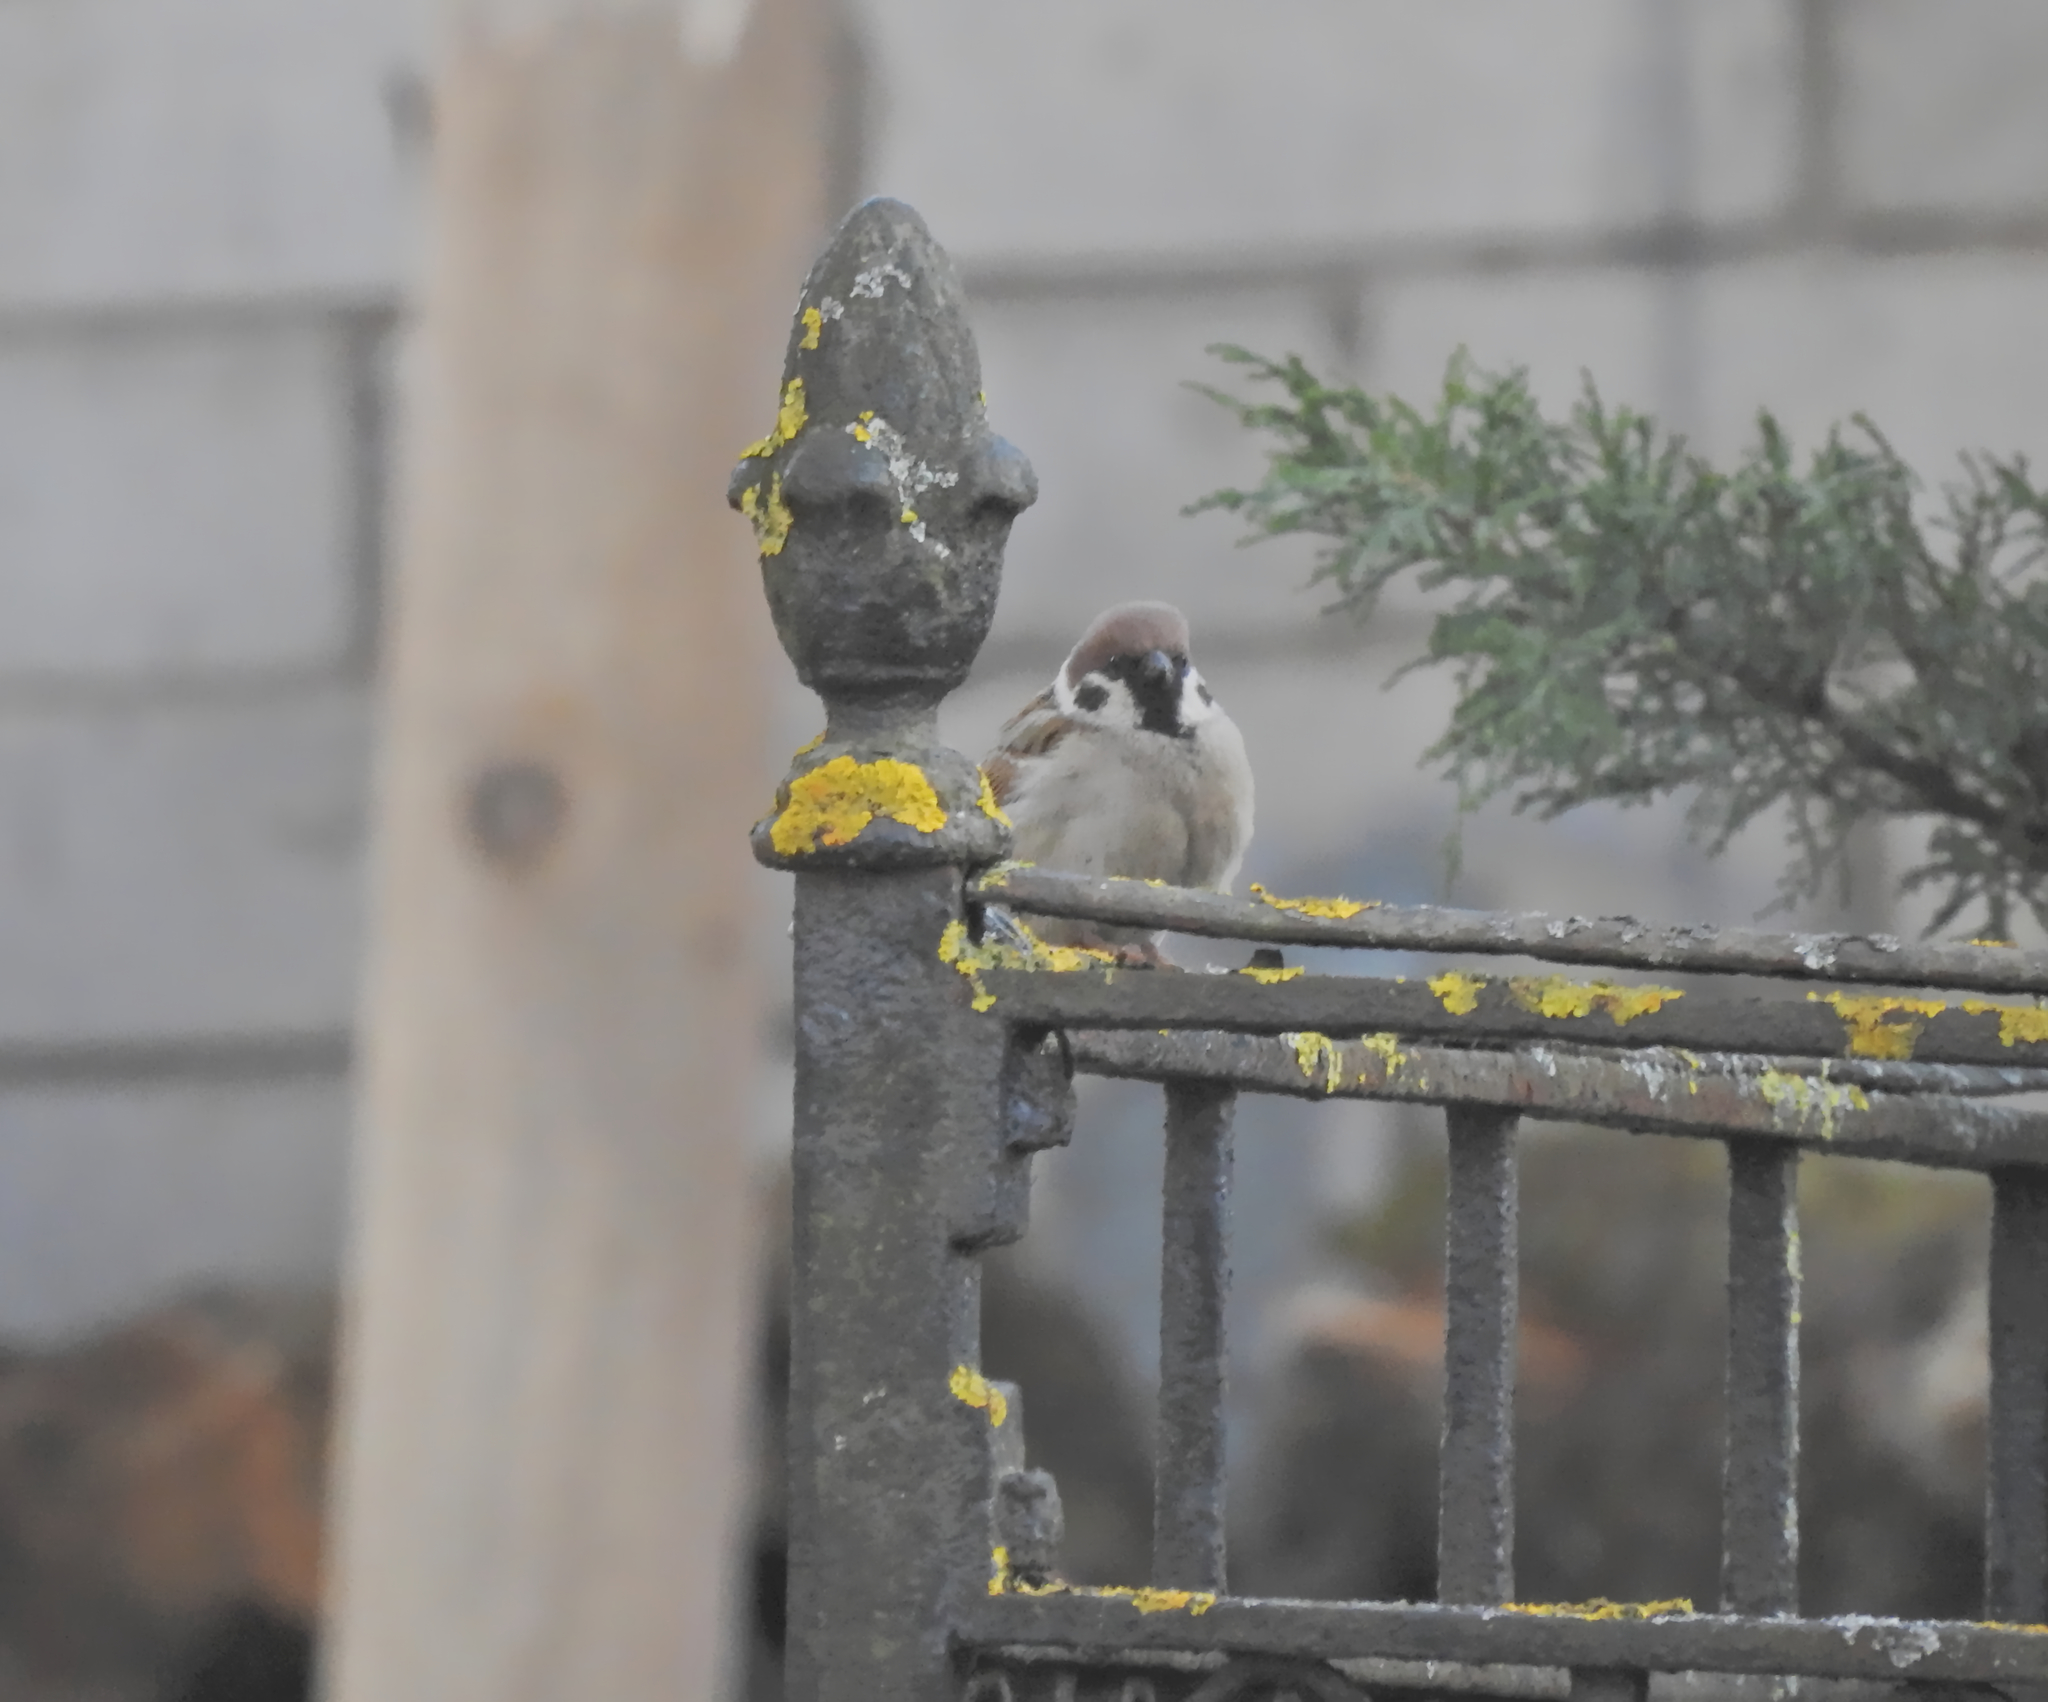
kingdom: Animalia
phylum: Chordata
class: Aves
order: Passeriformes
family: Passeridae
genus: Passer
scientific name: Passer montanus
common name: Eurasian tree sparrow
